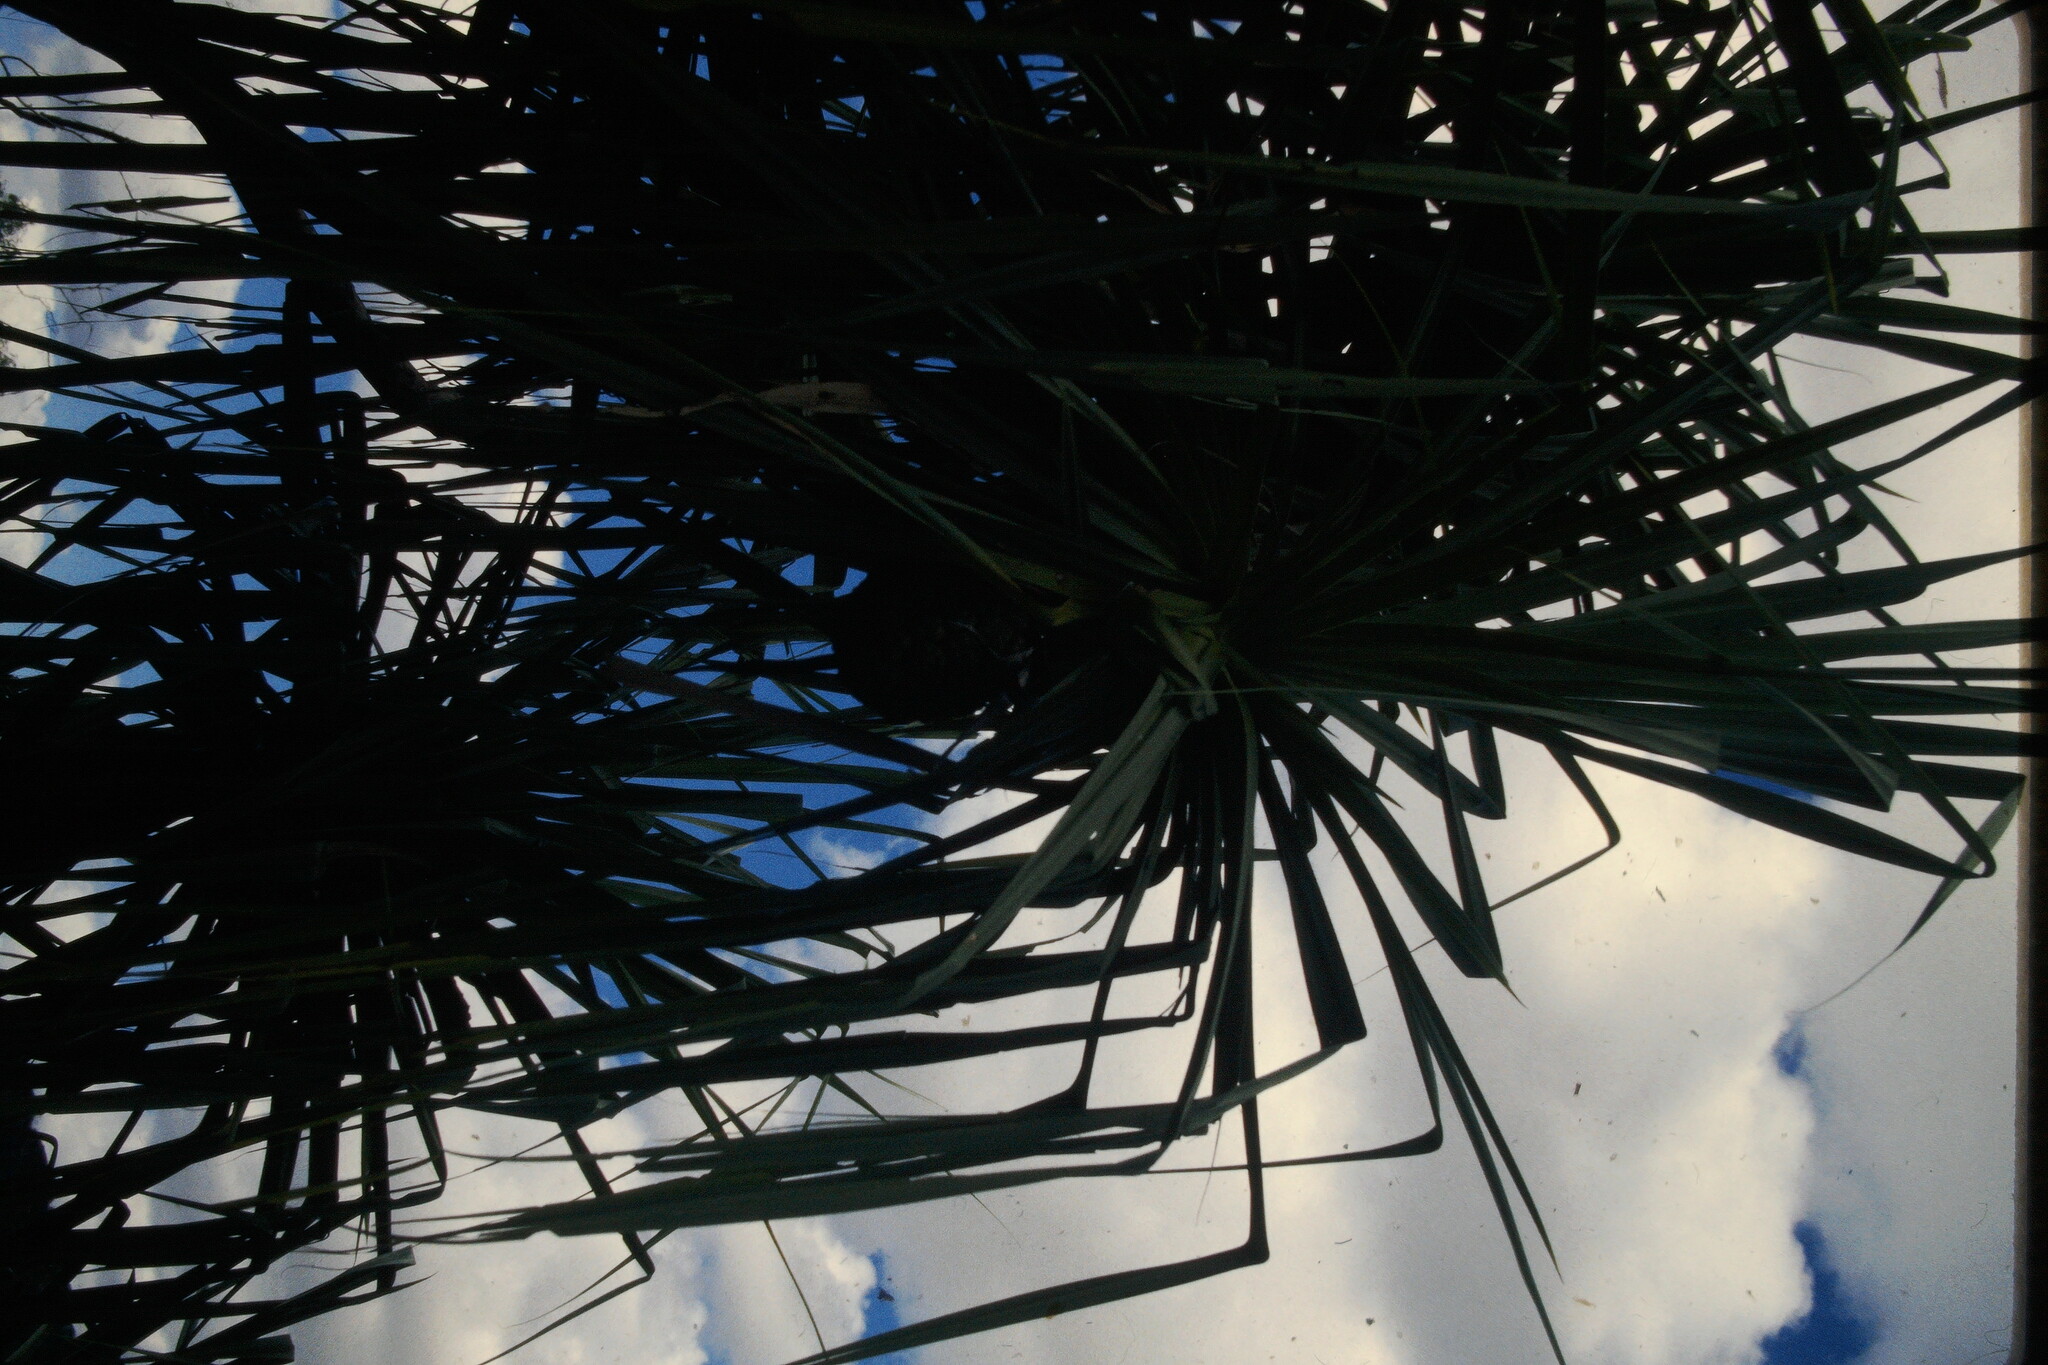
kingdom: Plantae
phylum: Tracheophyta
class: Liliopsida
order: Pandanales
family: Pandanaceae
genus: Pandanus
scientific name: Pandanus spiralis
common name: Screw-pine
